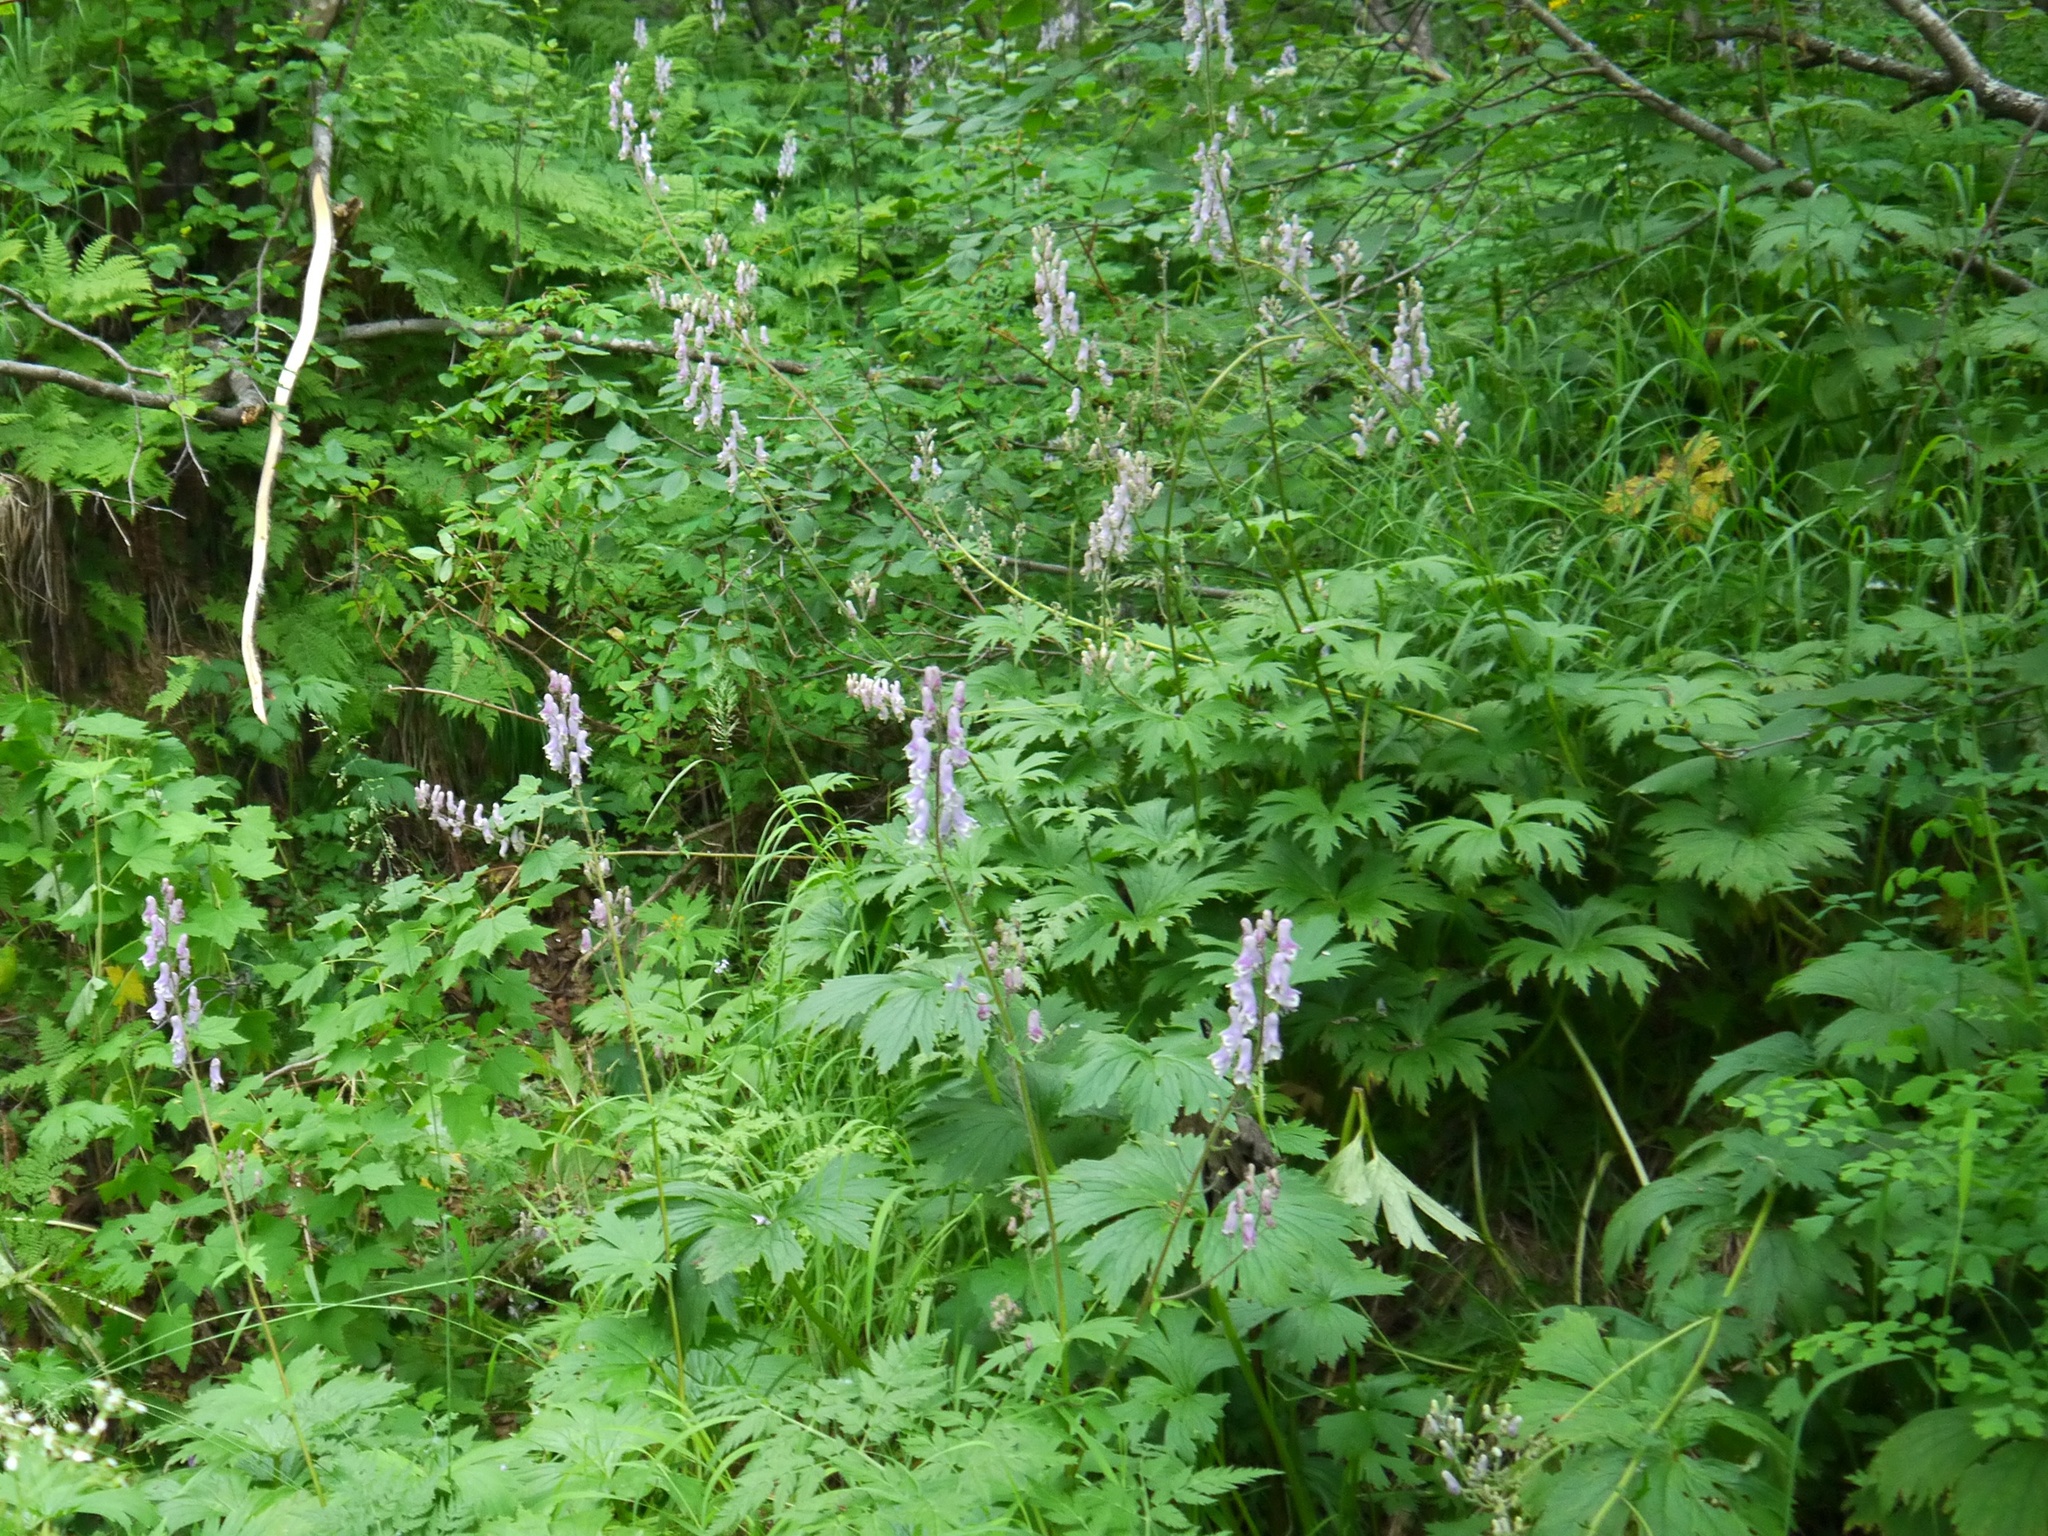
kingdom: Plantae
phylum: Tracheophyta
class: Magnoliopsida
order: Ranunculales
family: Ranunculaceae
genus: Aconitum
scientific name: Aconitum septentrionale
